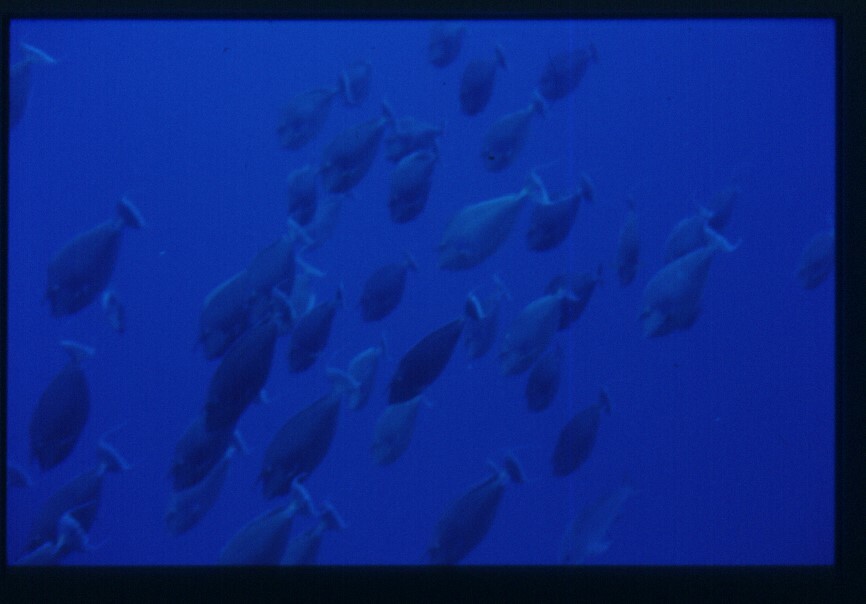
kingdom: Animalia
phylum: Chordata
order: Perciformes
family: Acanthuridae
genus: Naso
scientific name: Naso unicornis
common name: Bluespine unicornfish
